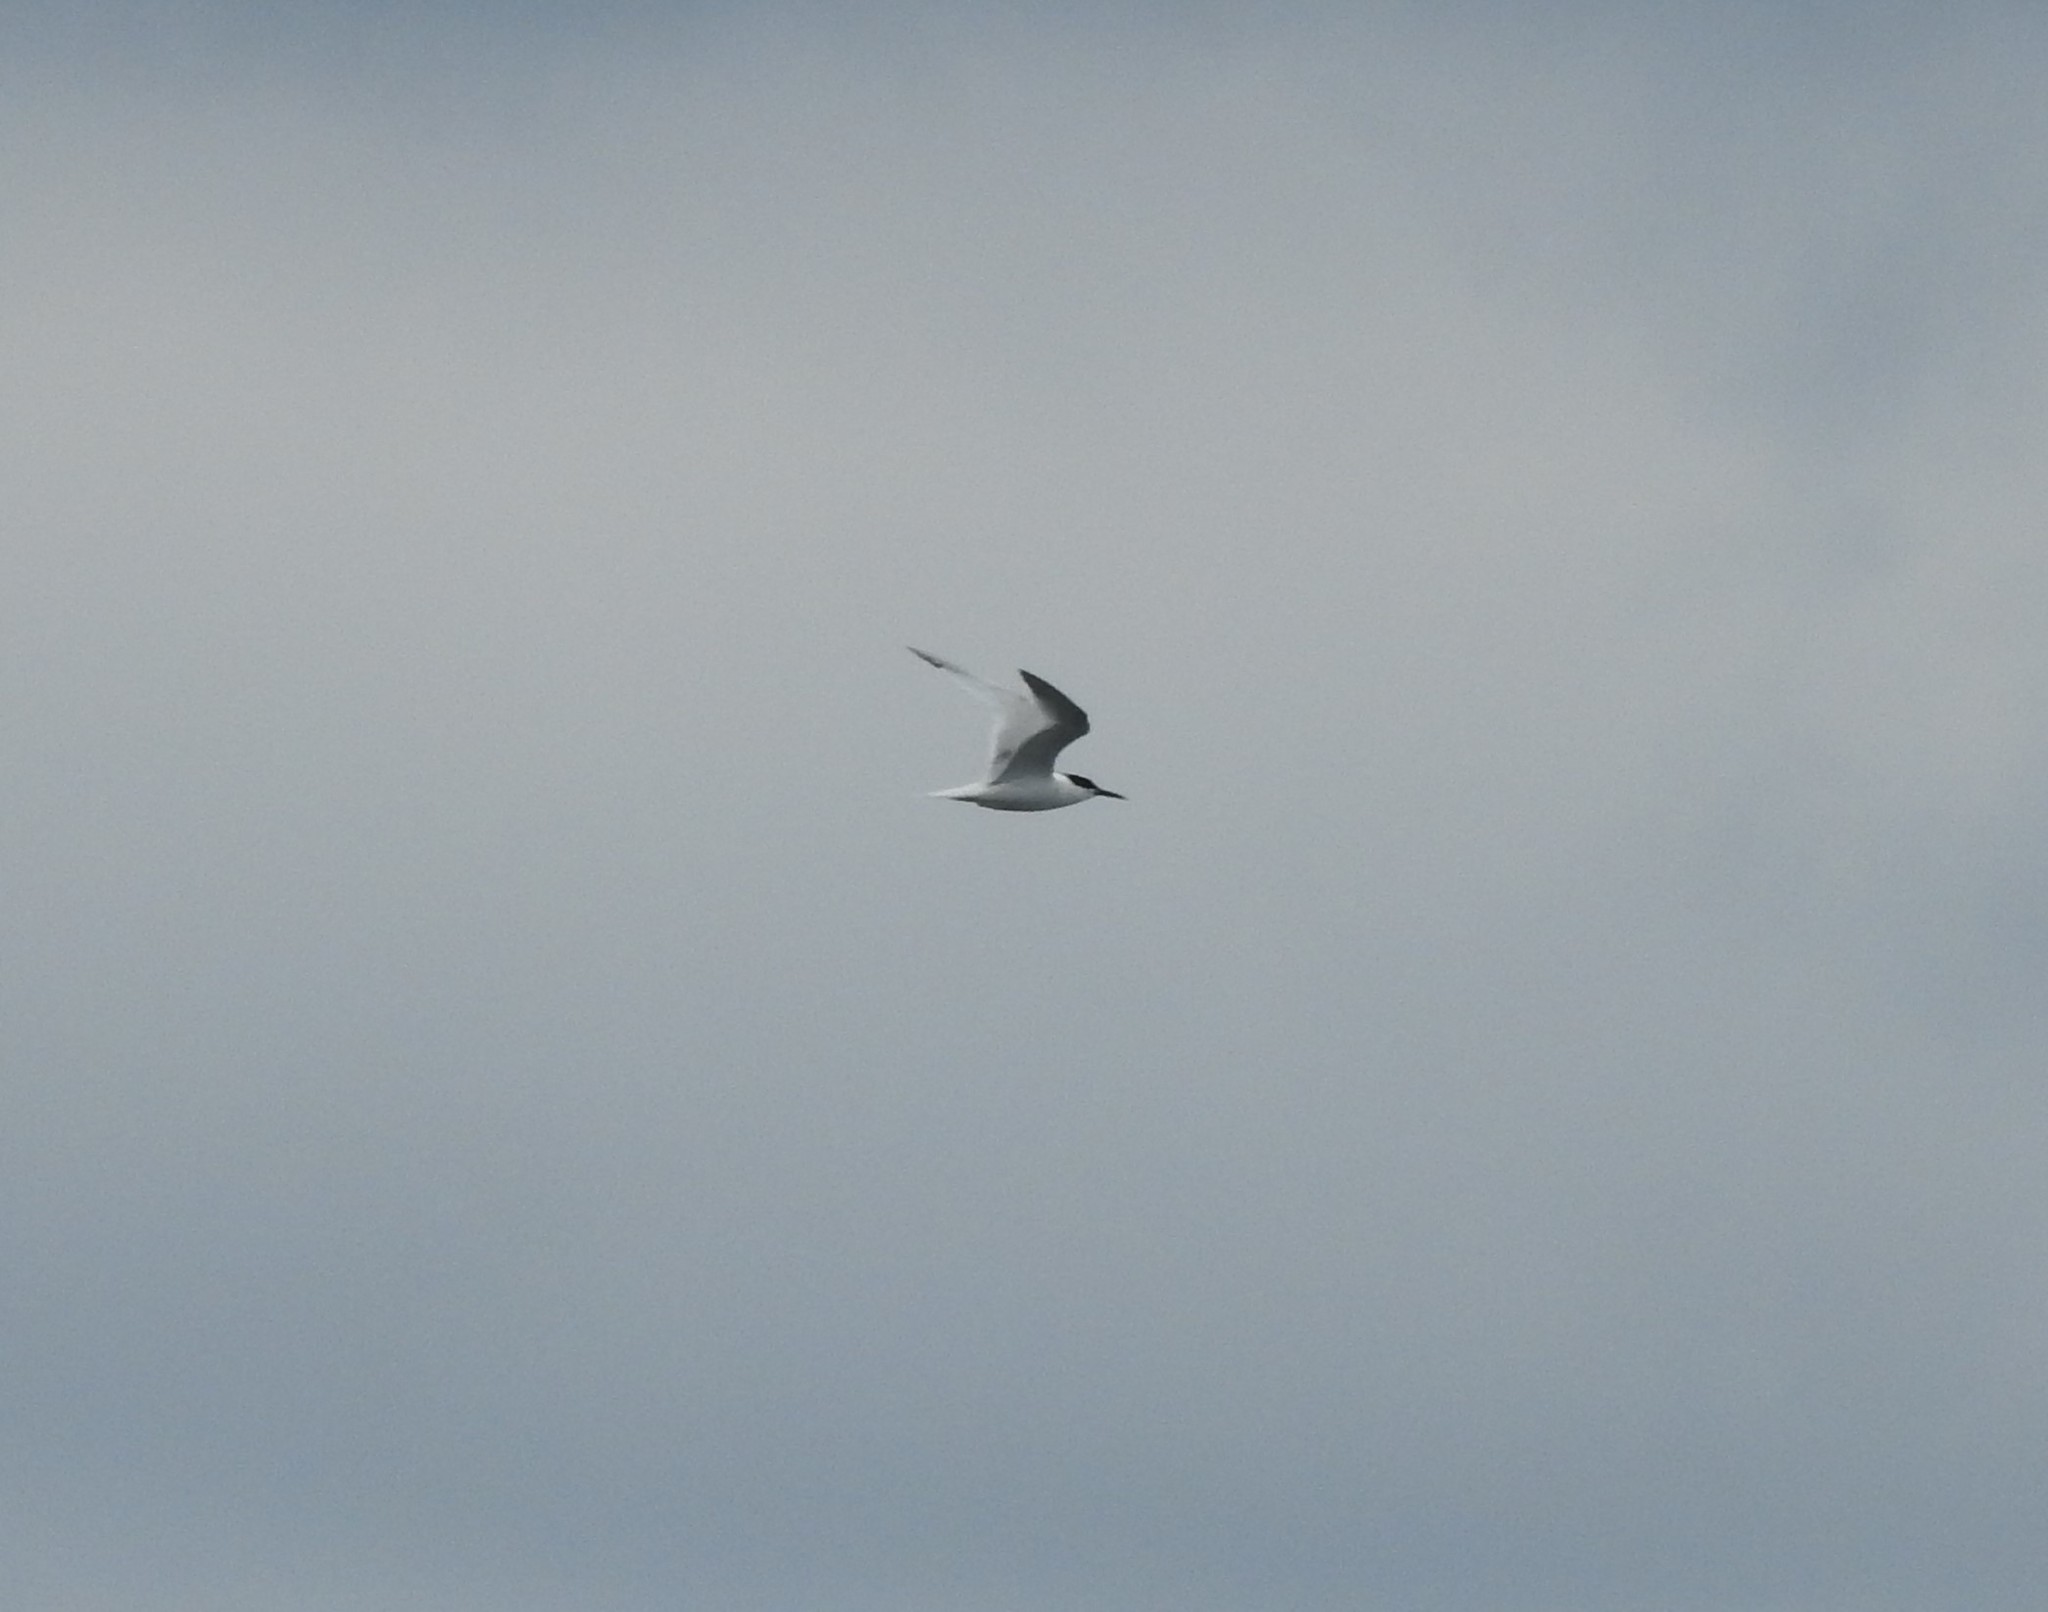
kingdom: Animalia
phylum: Chordata
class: Aves
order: Charadriiformes
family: Laridae
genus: Thalasseus
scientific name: Thalasseus sandvicensis
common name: Sandwich tern
